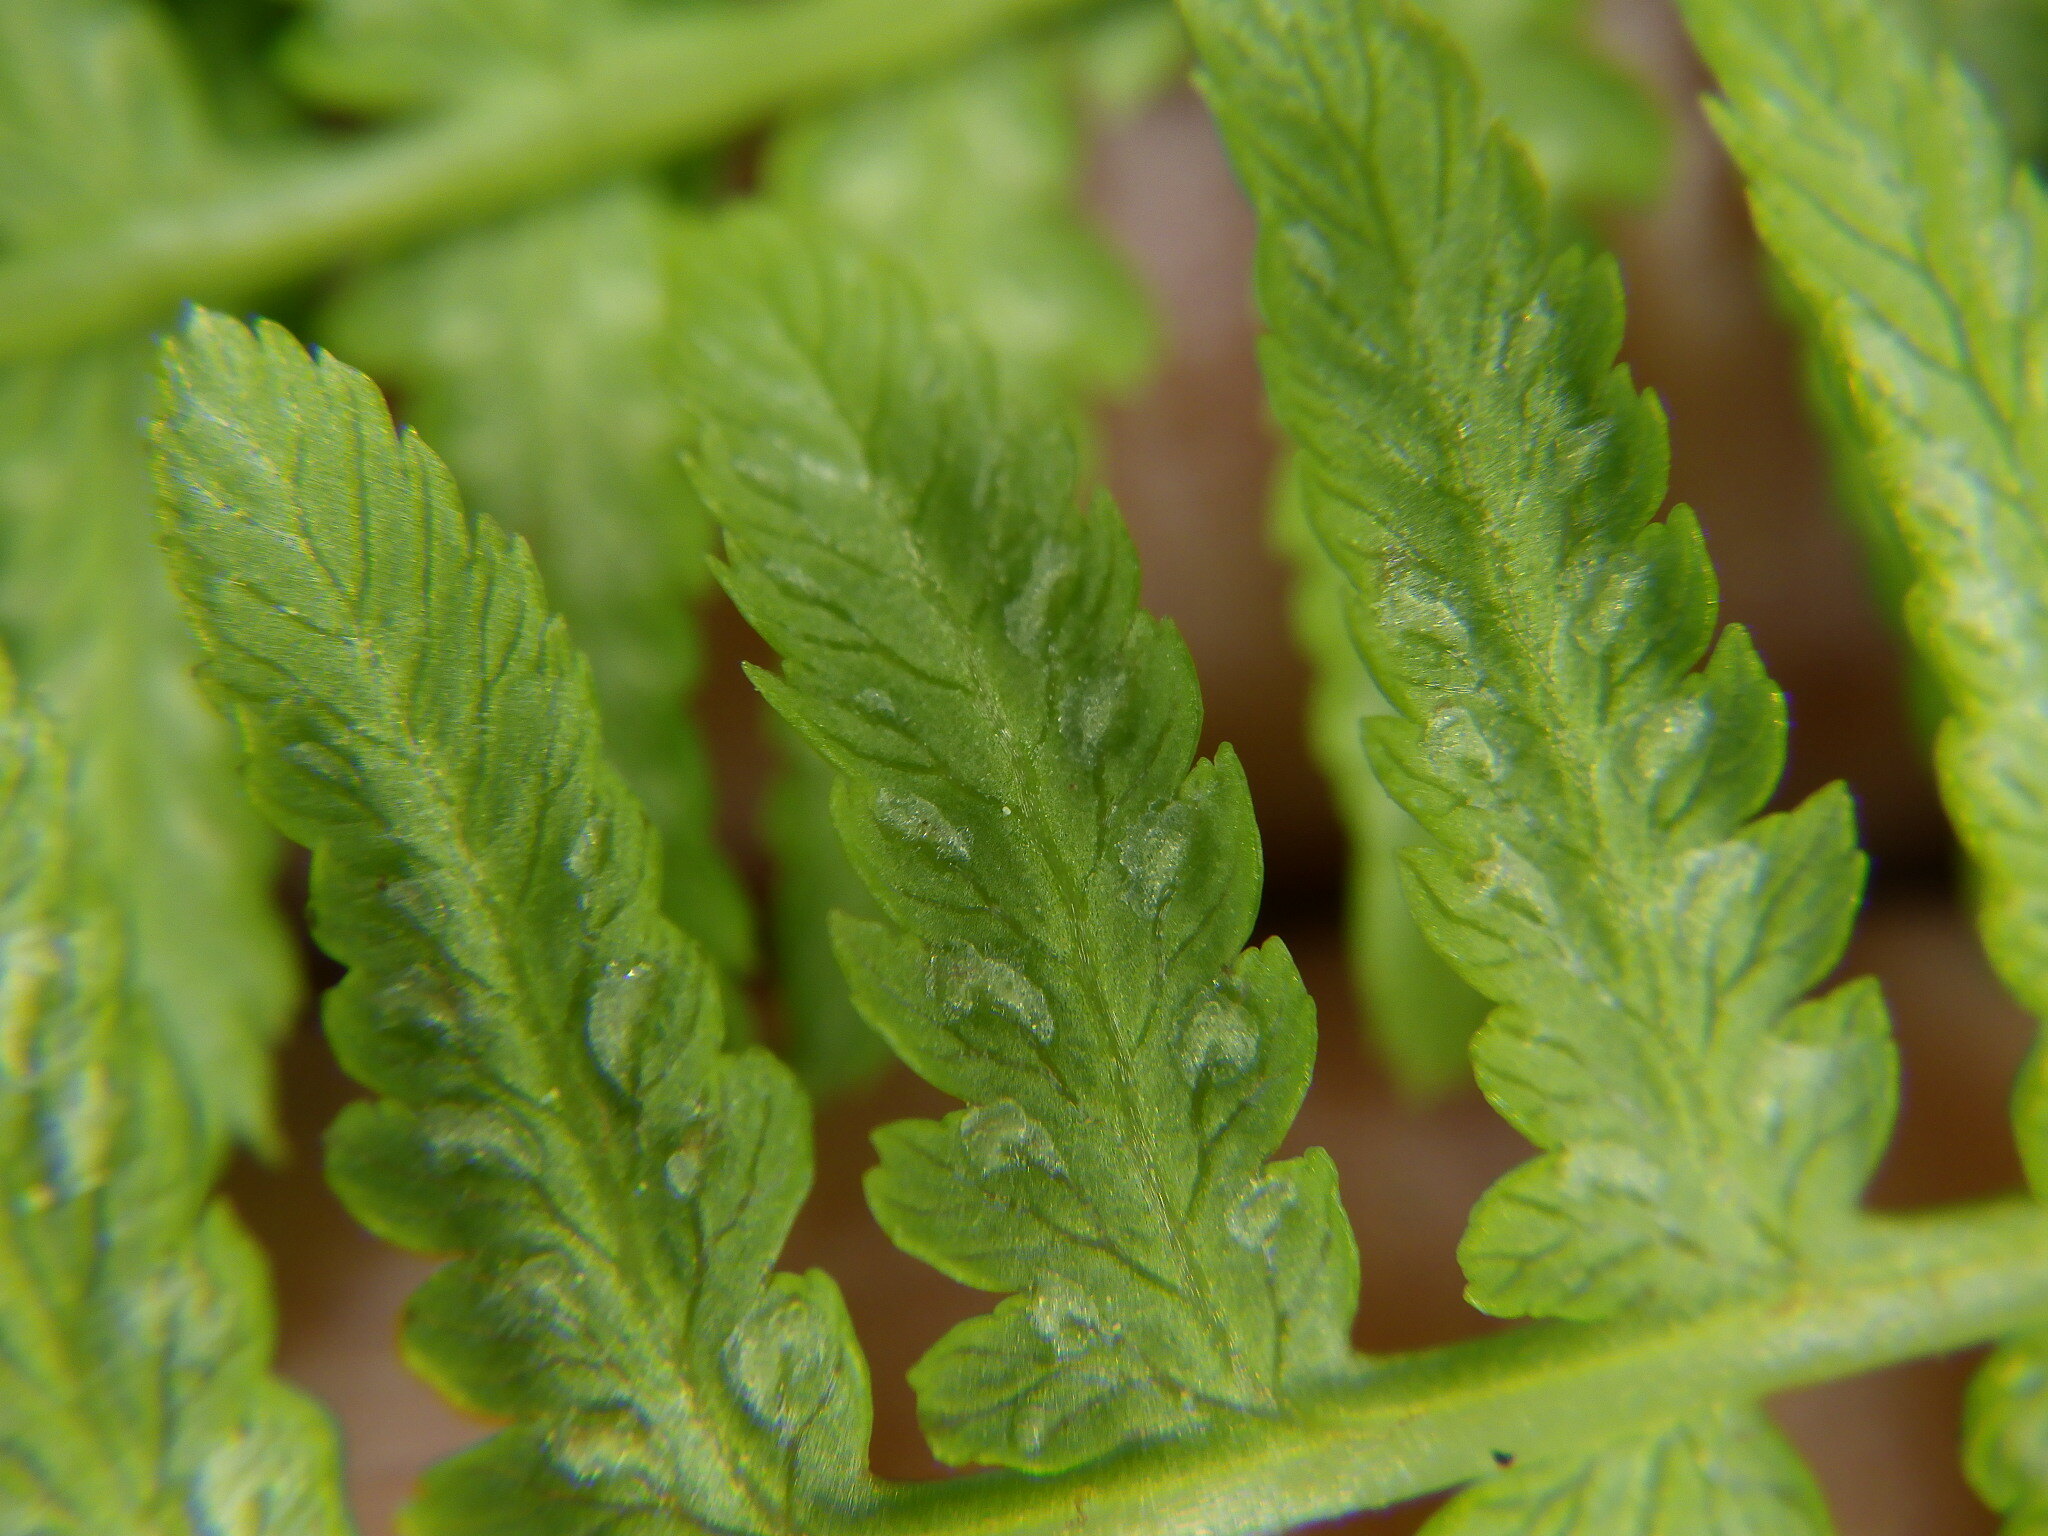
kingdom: Plantae
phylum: Tracheophyta
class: Polypodiopsida
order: Polypodiales
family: Athyriaceae
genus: Athyrium
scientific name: Athyrium angustum
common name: Northern lady fern
